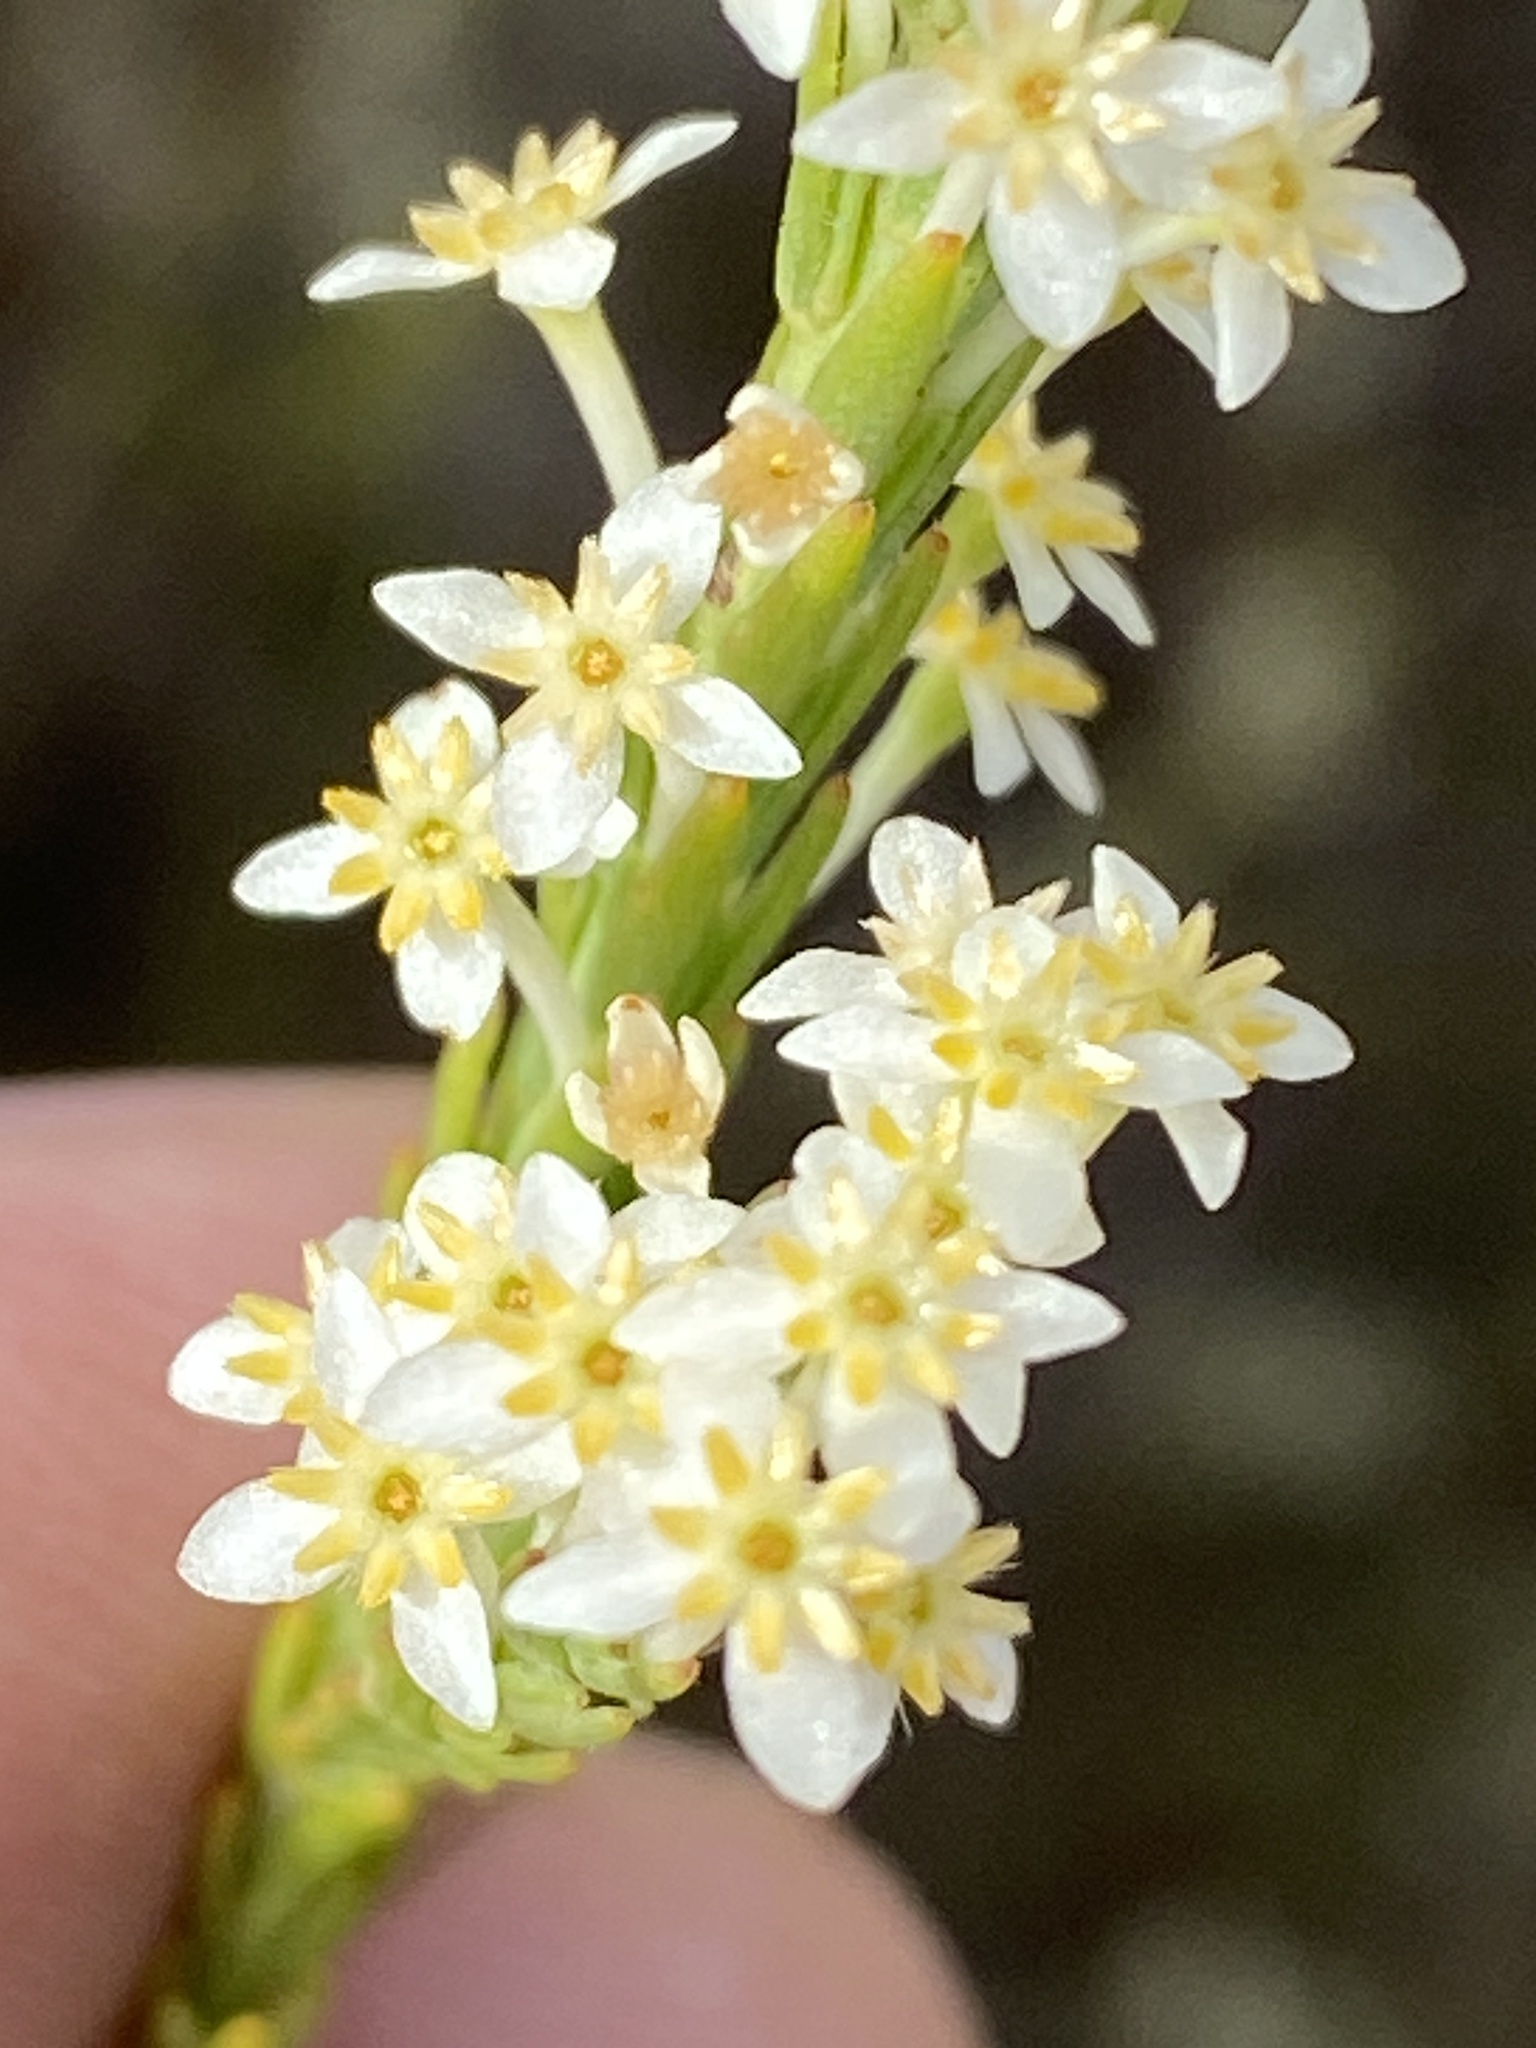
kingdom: Plantae
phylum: Tracheophyta
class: Magnoliopsida
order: Malvales
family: Thymelaeaceae
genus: Struthiola
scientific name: Struthiola confusa
